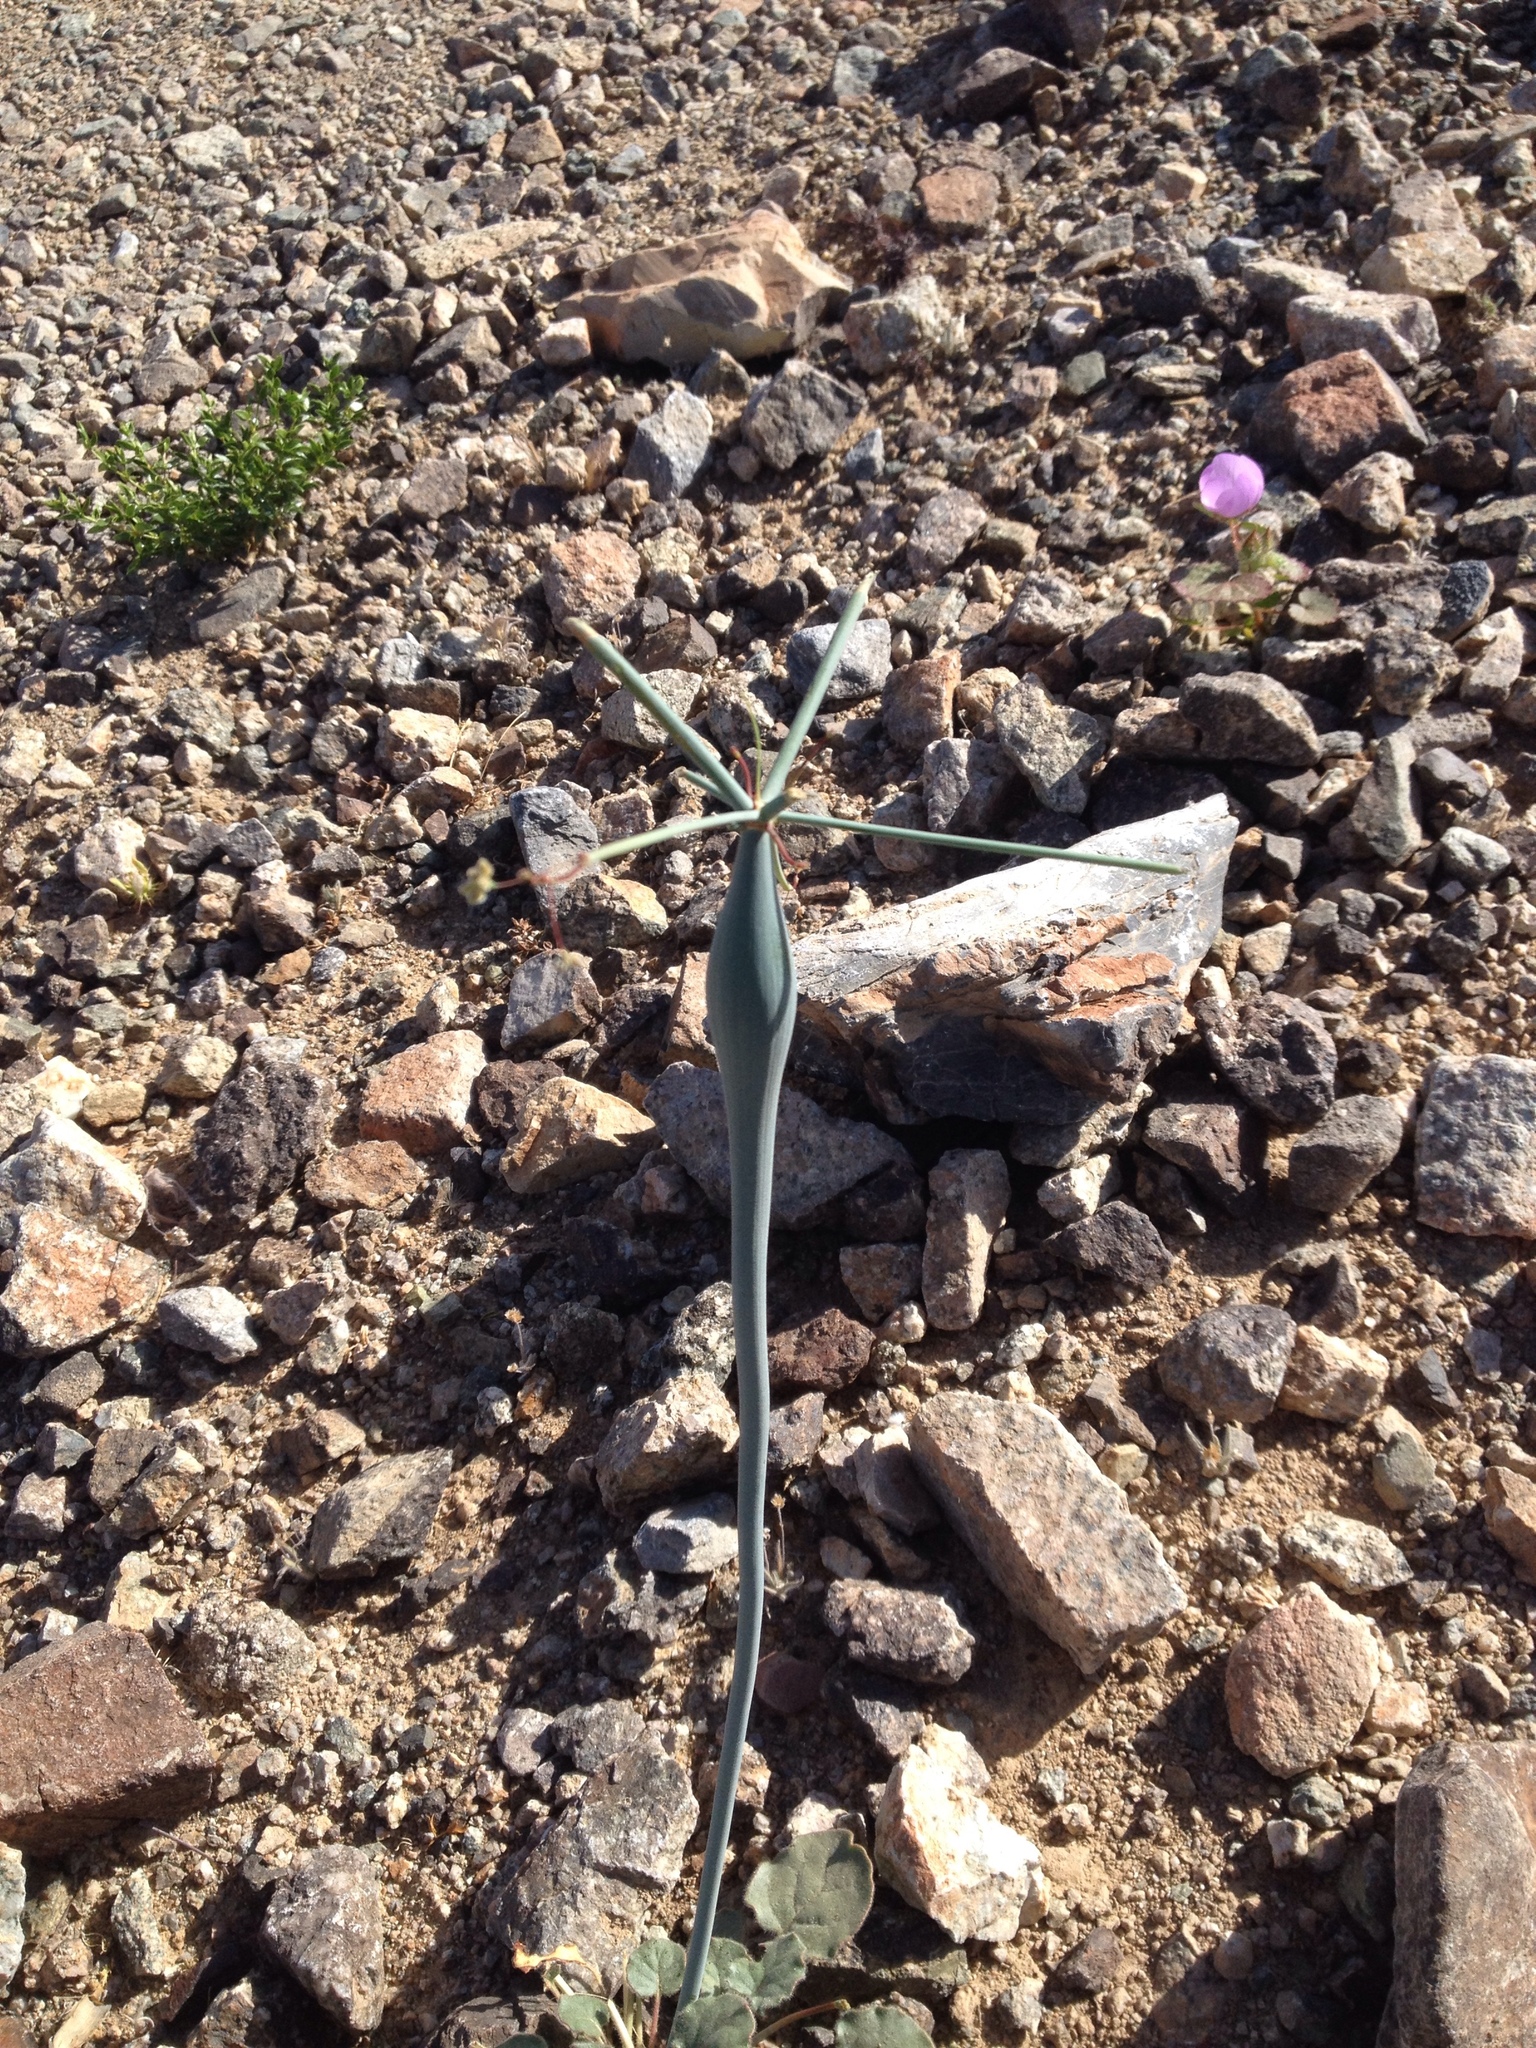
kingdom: Plantae
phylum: Tracheophyta
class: Magnoliopsida
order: Caryophyllales
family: Polygonaceae
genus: Eriogonum
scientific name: Eriogonum inflatum
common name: Desert trumpet
